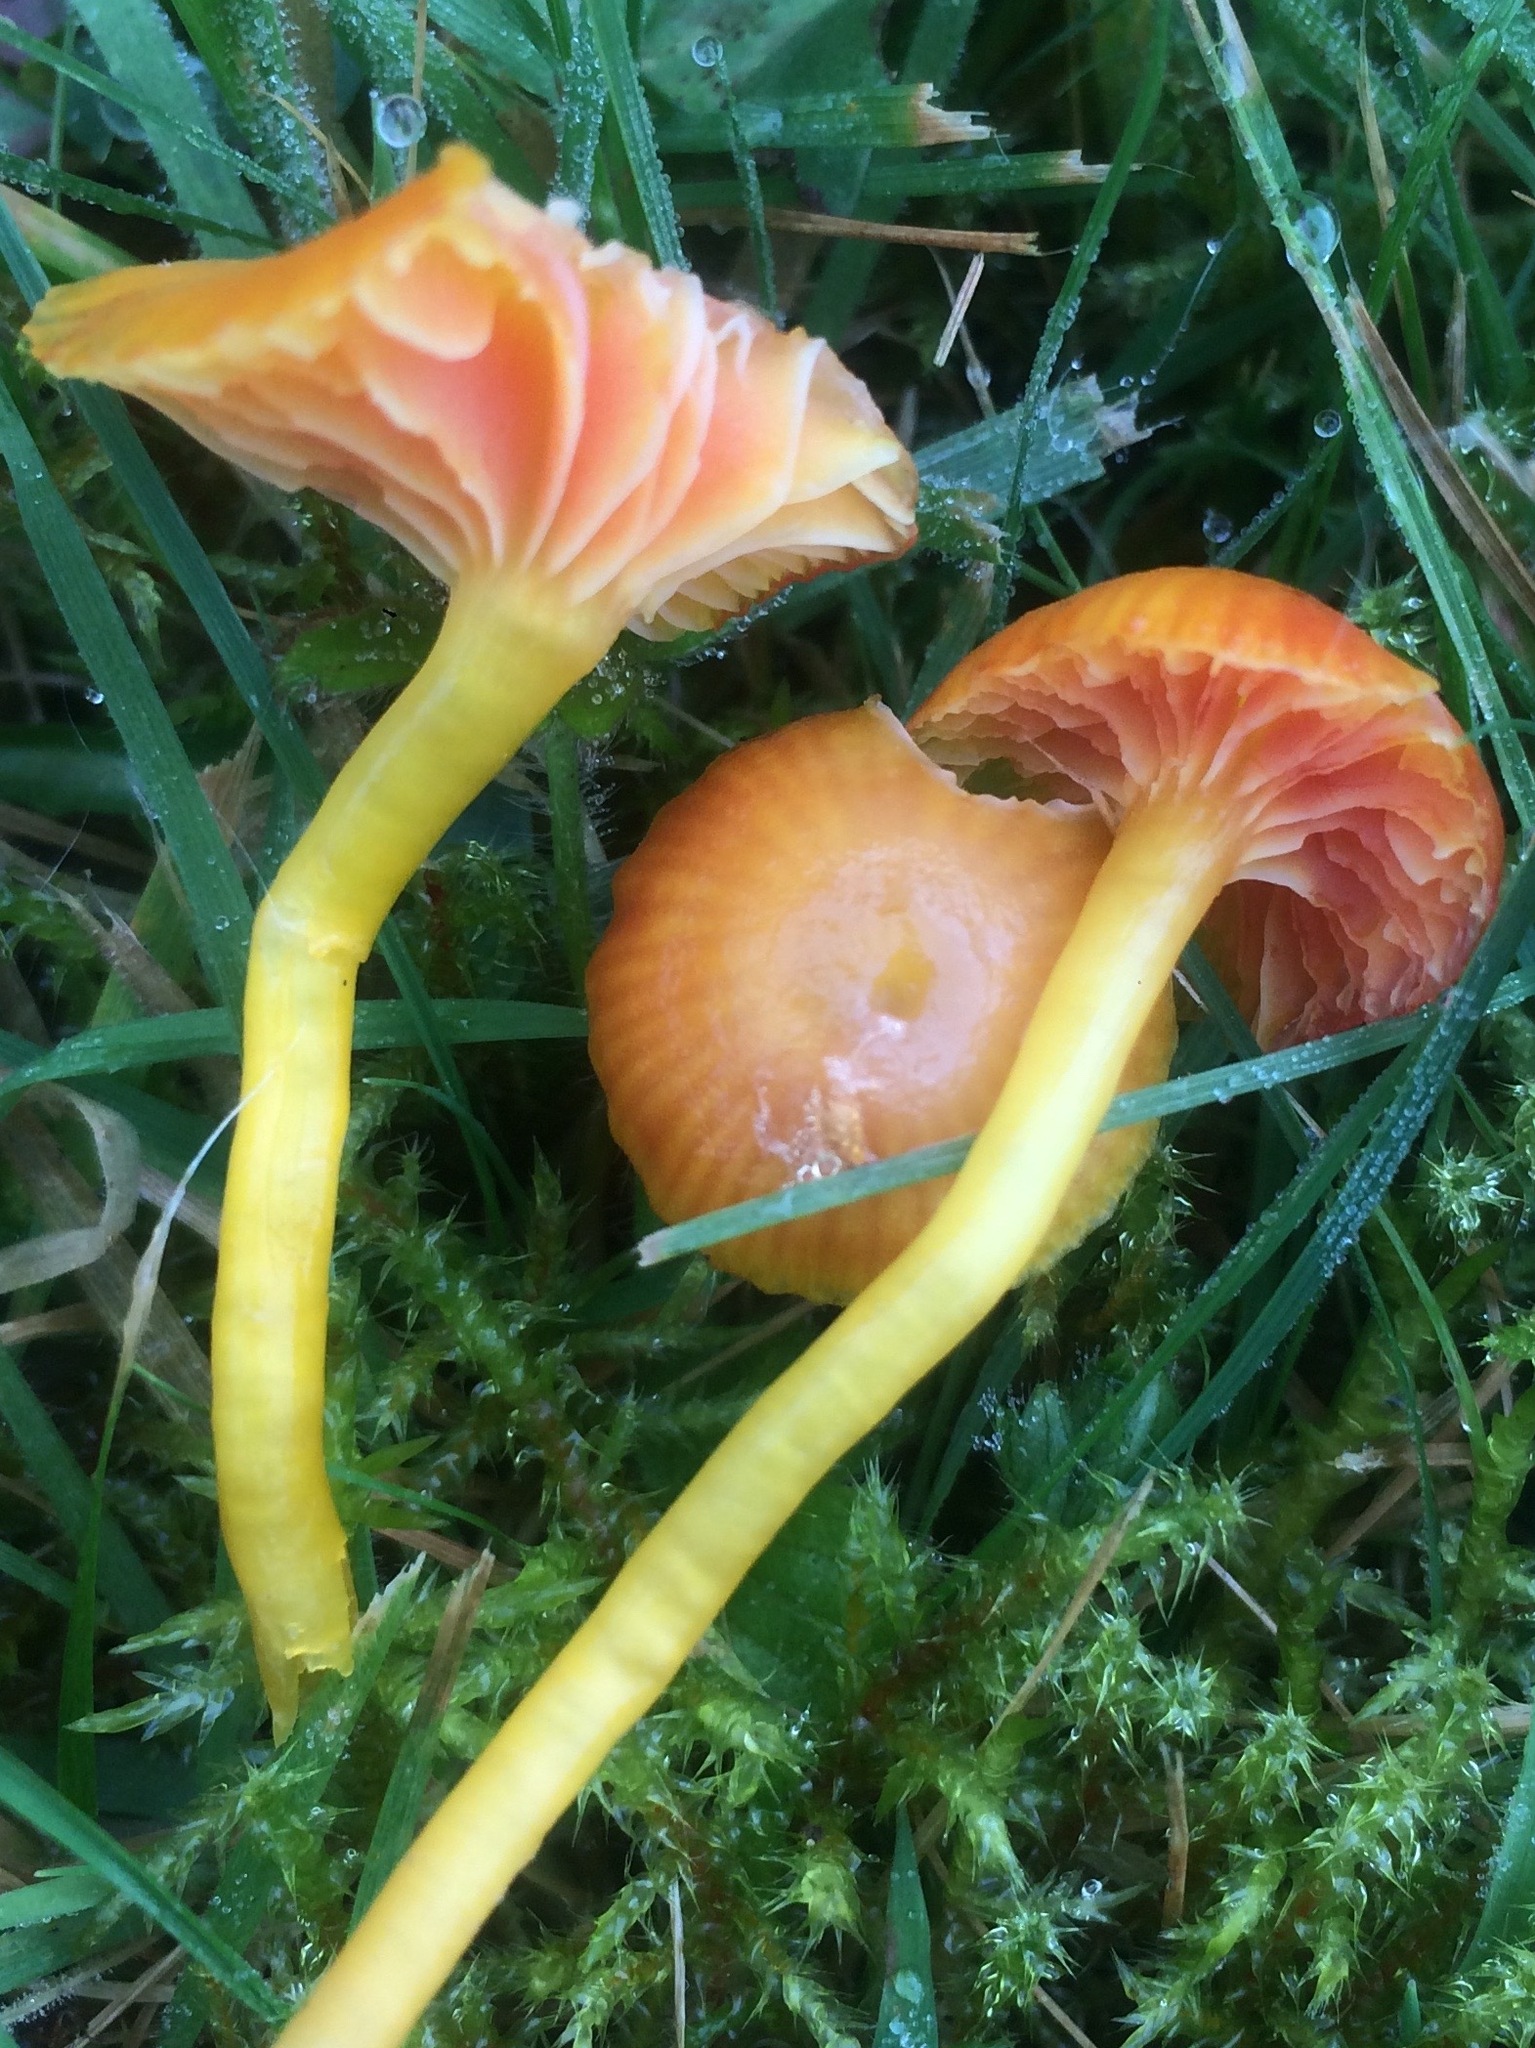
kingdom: Fungi
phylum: Basidiomycota
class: Agaricomycetes
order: Agaricales
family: Hygrophoraceae
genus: Hygrocybe
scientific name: Hygrocybe insipida
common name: Spangle waxcap
